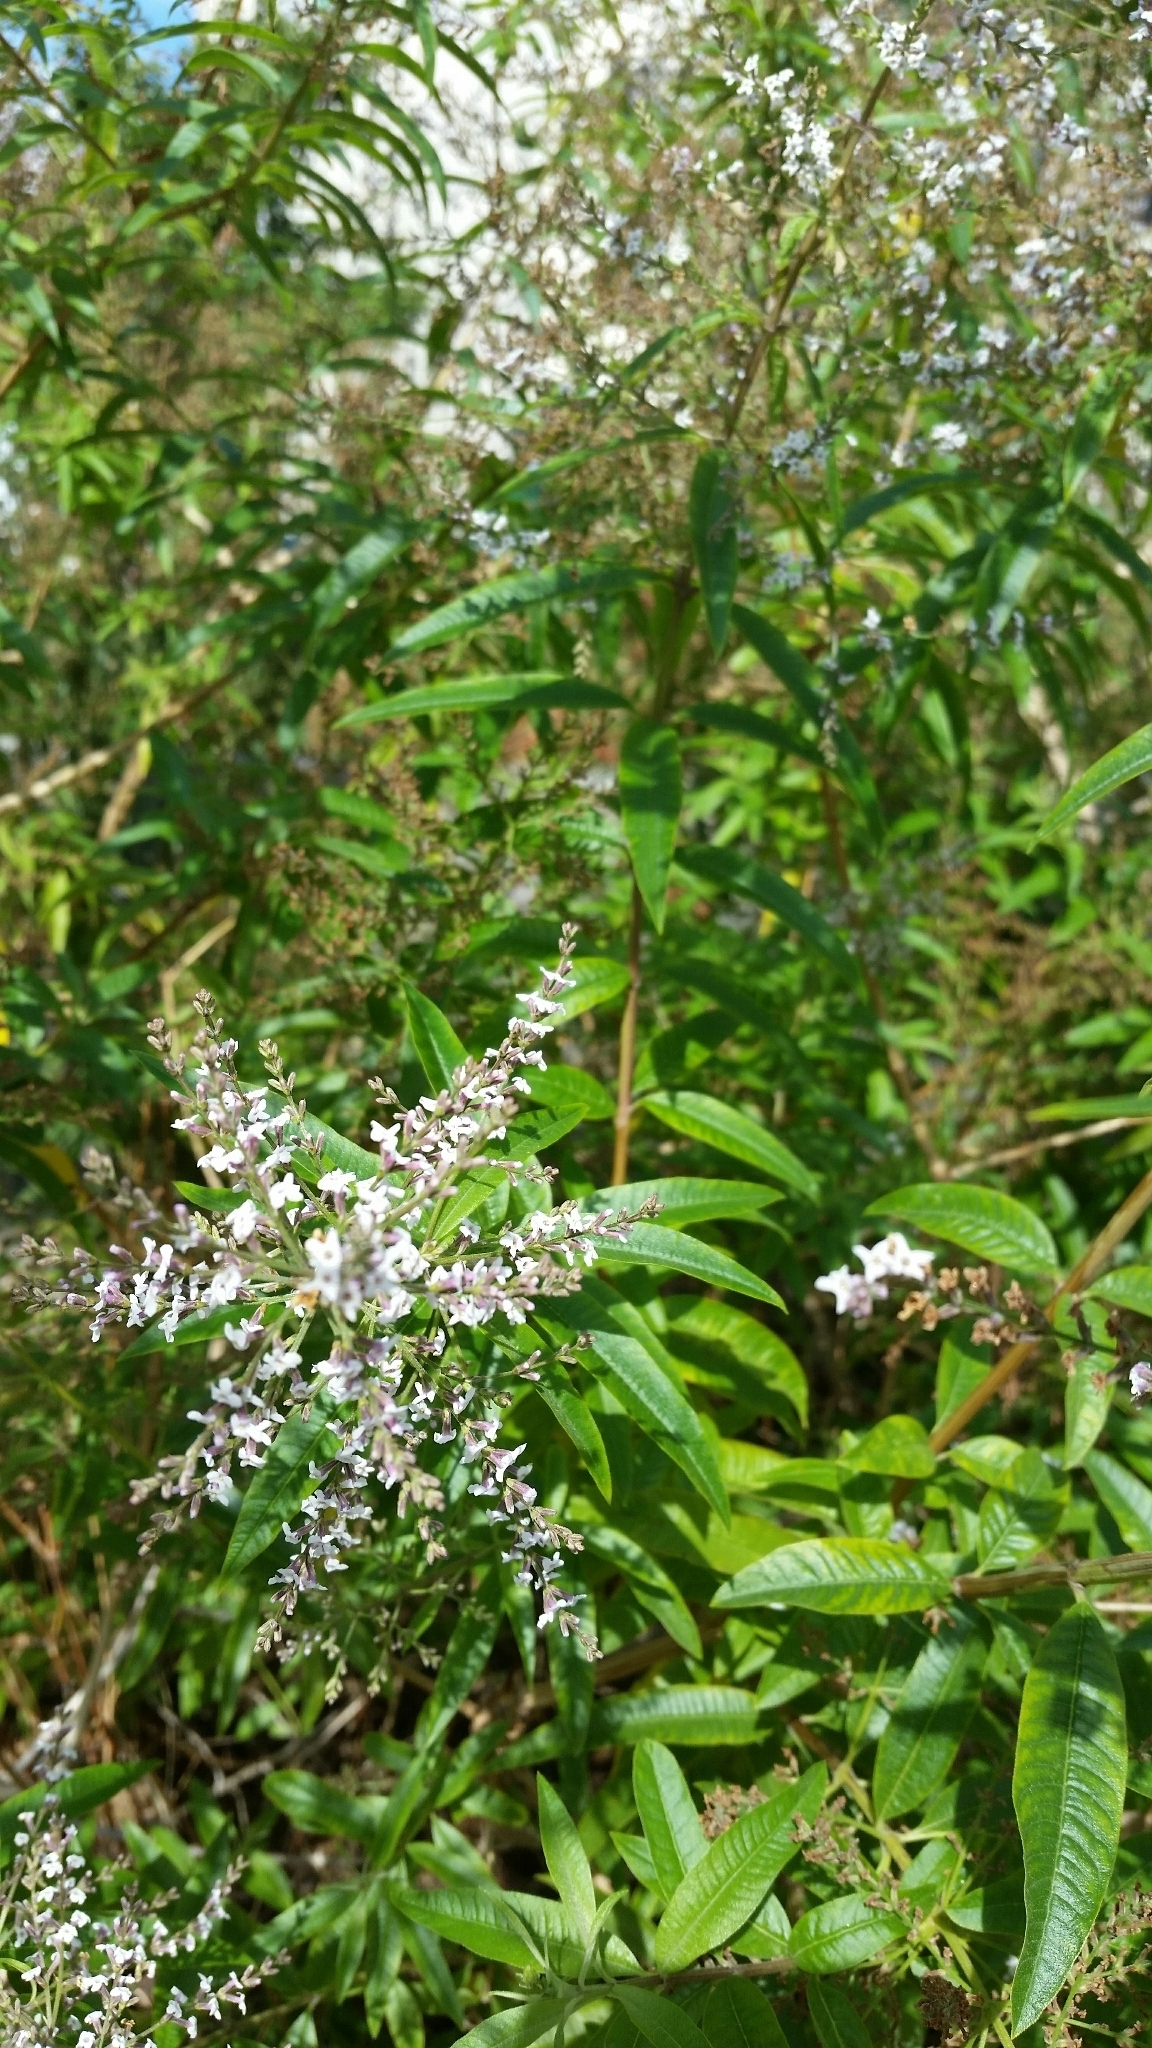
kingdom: Plantae
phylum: Tracheophyta
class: Magnoliopsida
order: Lamiales
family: Verbenaceae
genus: Aloysia
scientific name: Aloysia citrodora
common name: Lemon beebrush
